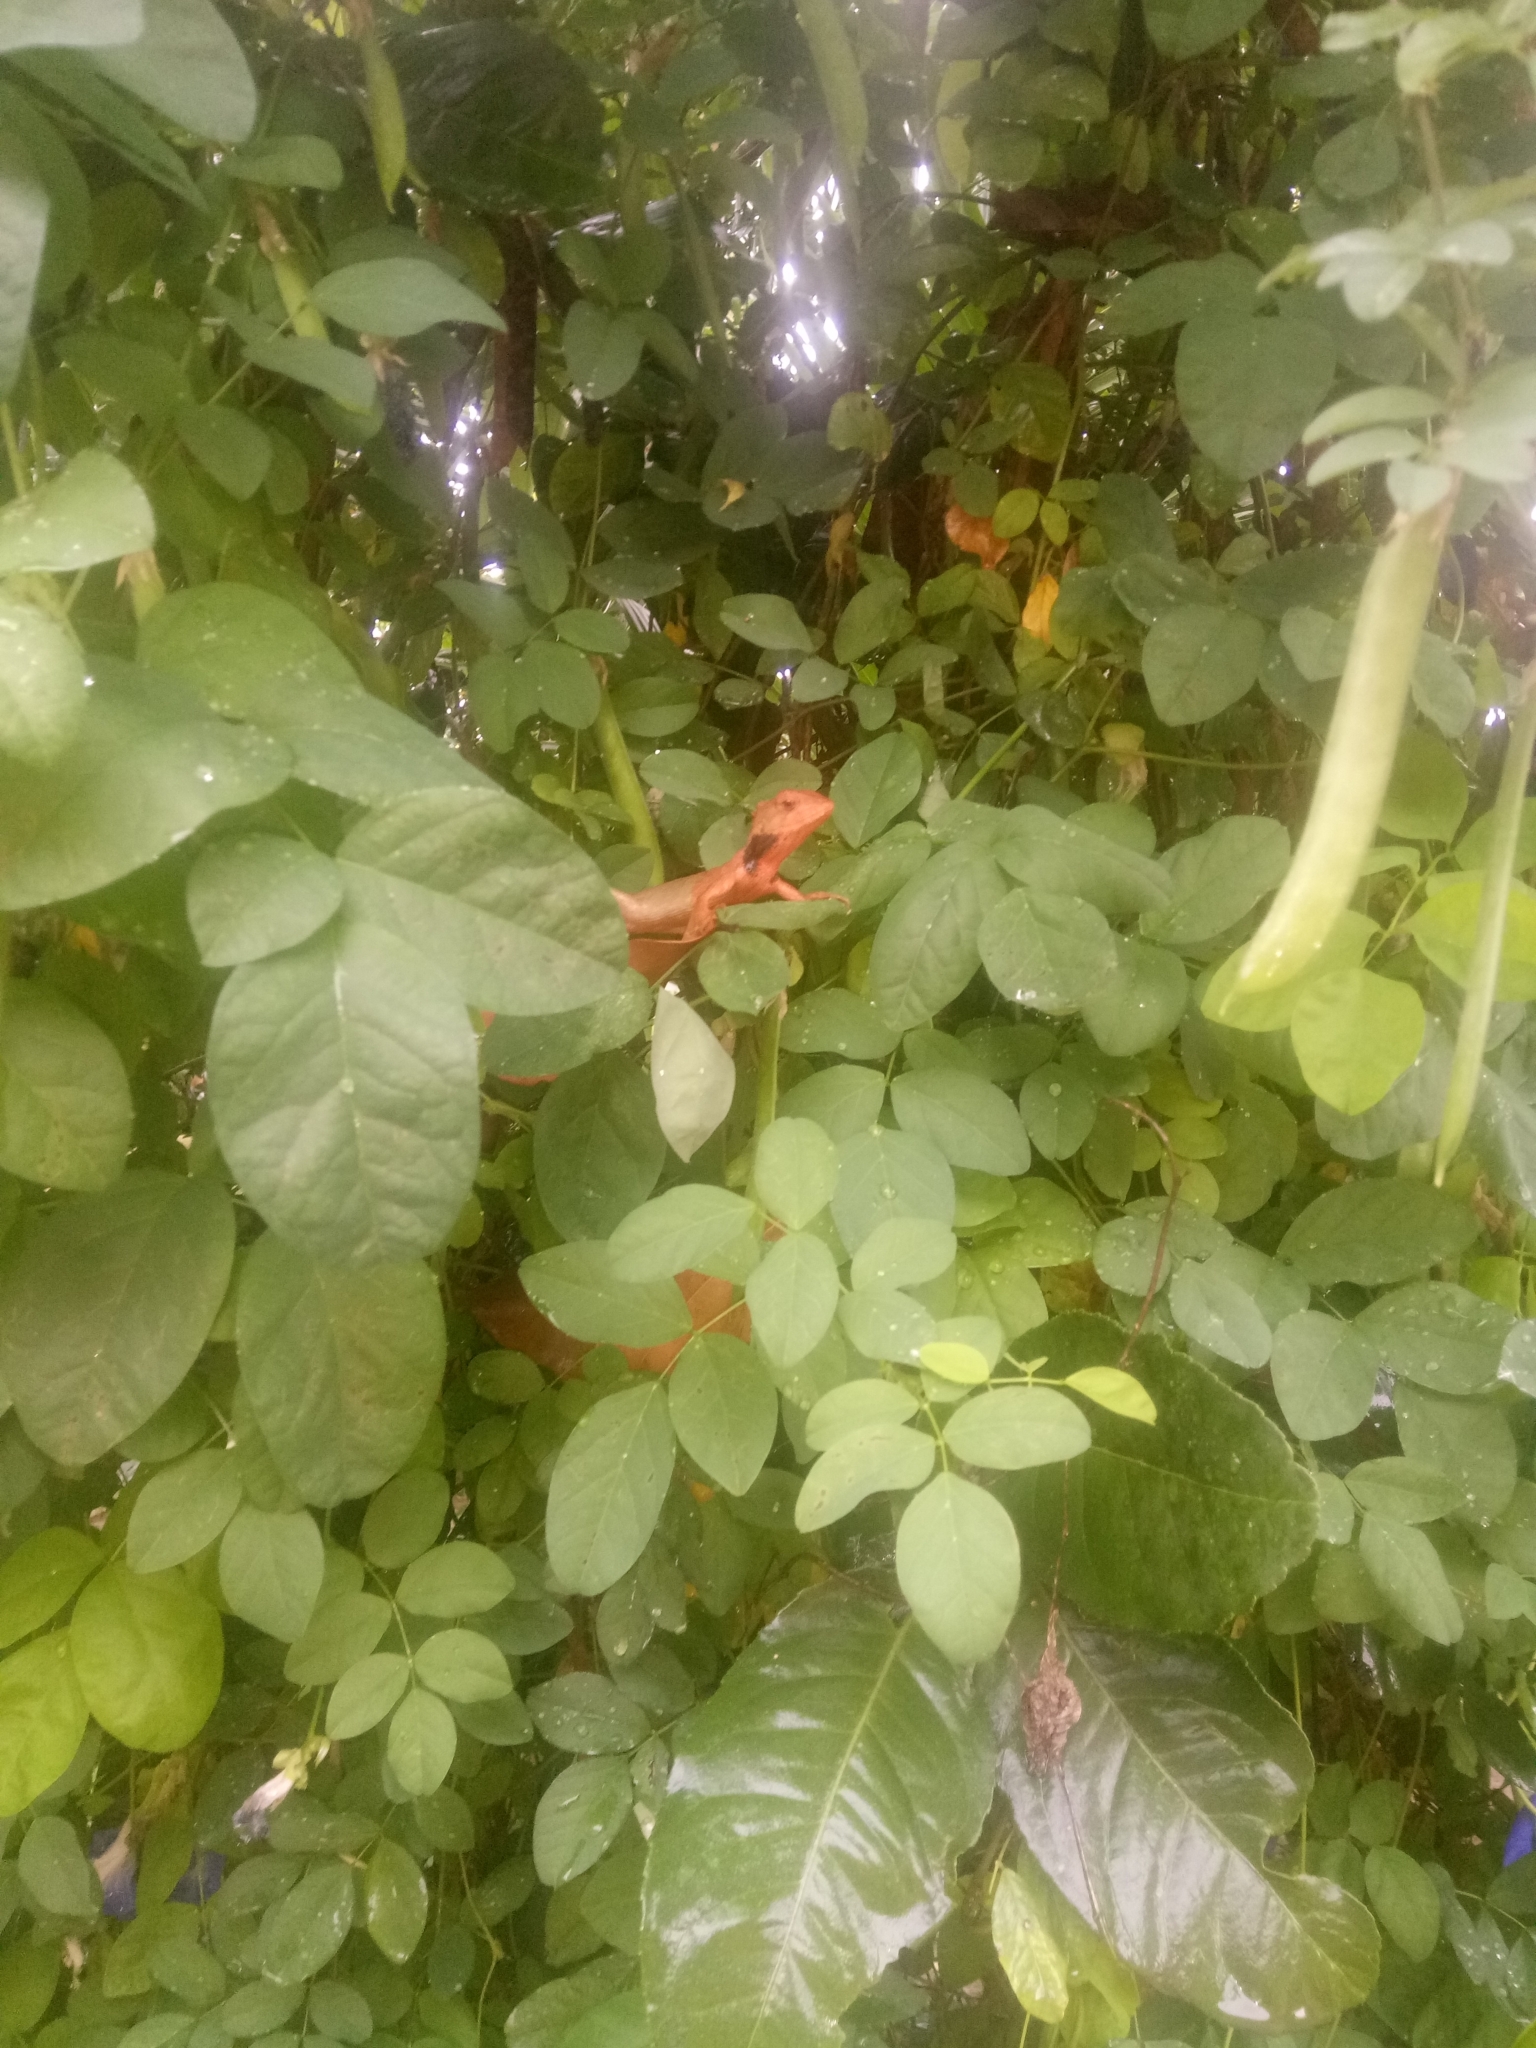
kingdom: Animalia
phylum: Chordata
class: Squamata
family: Agamidae
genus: Calotes
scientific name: Calotes versicolor
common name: Oriental garden lizard
